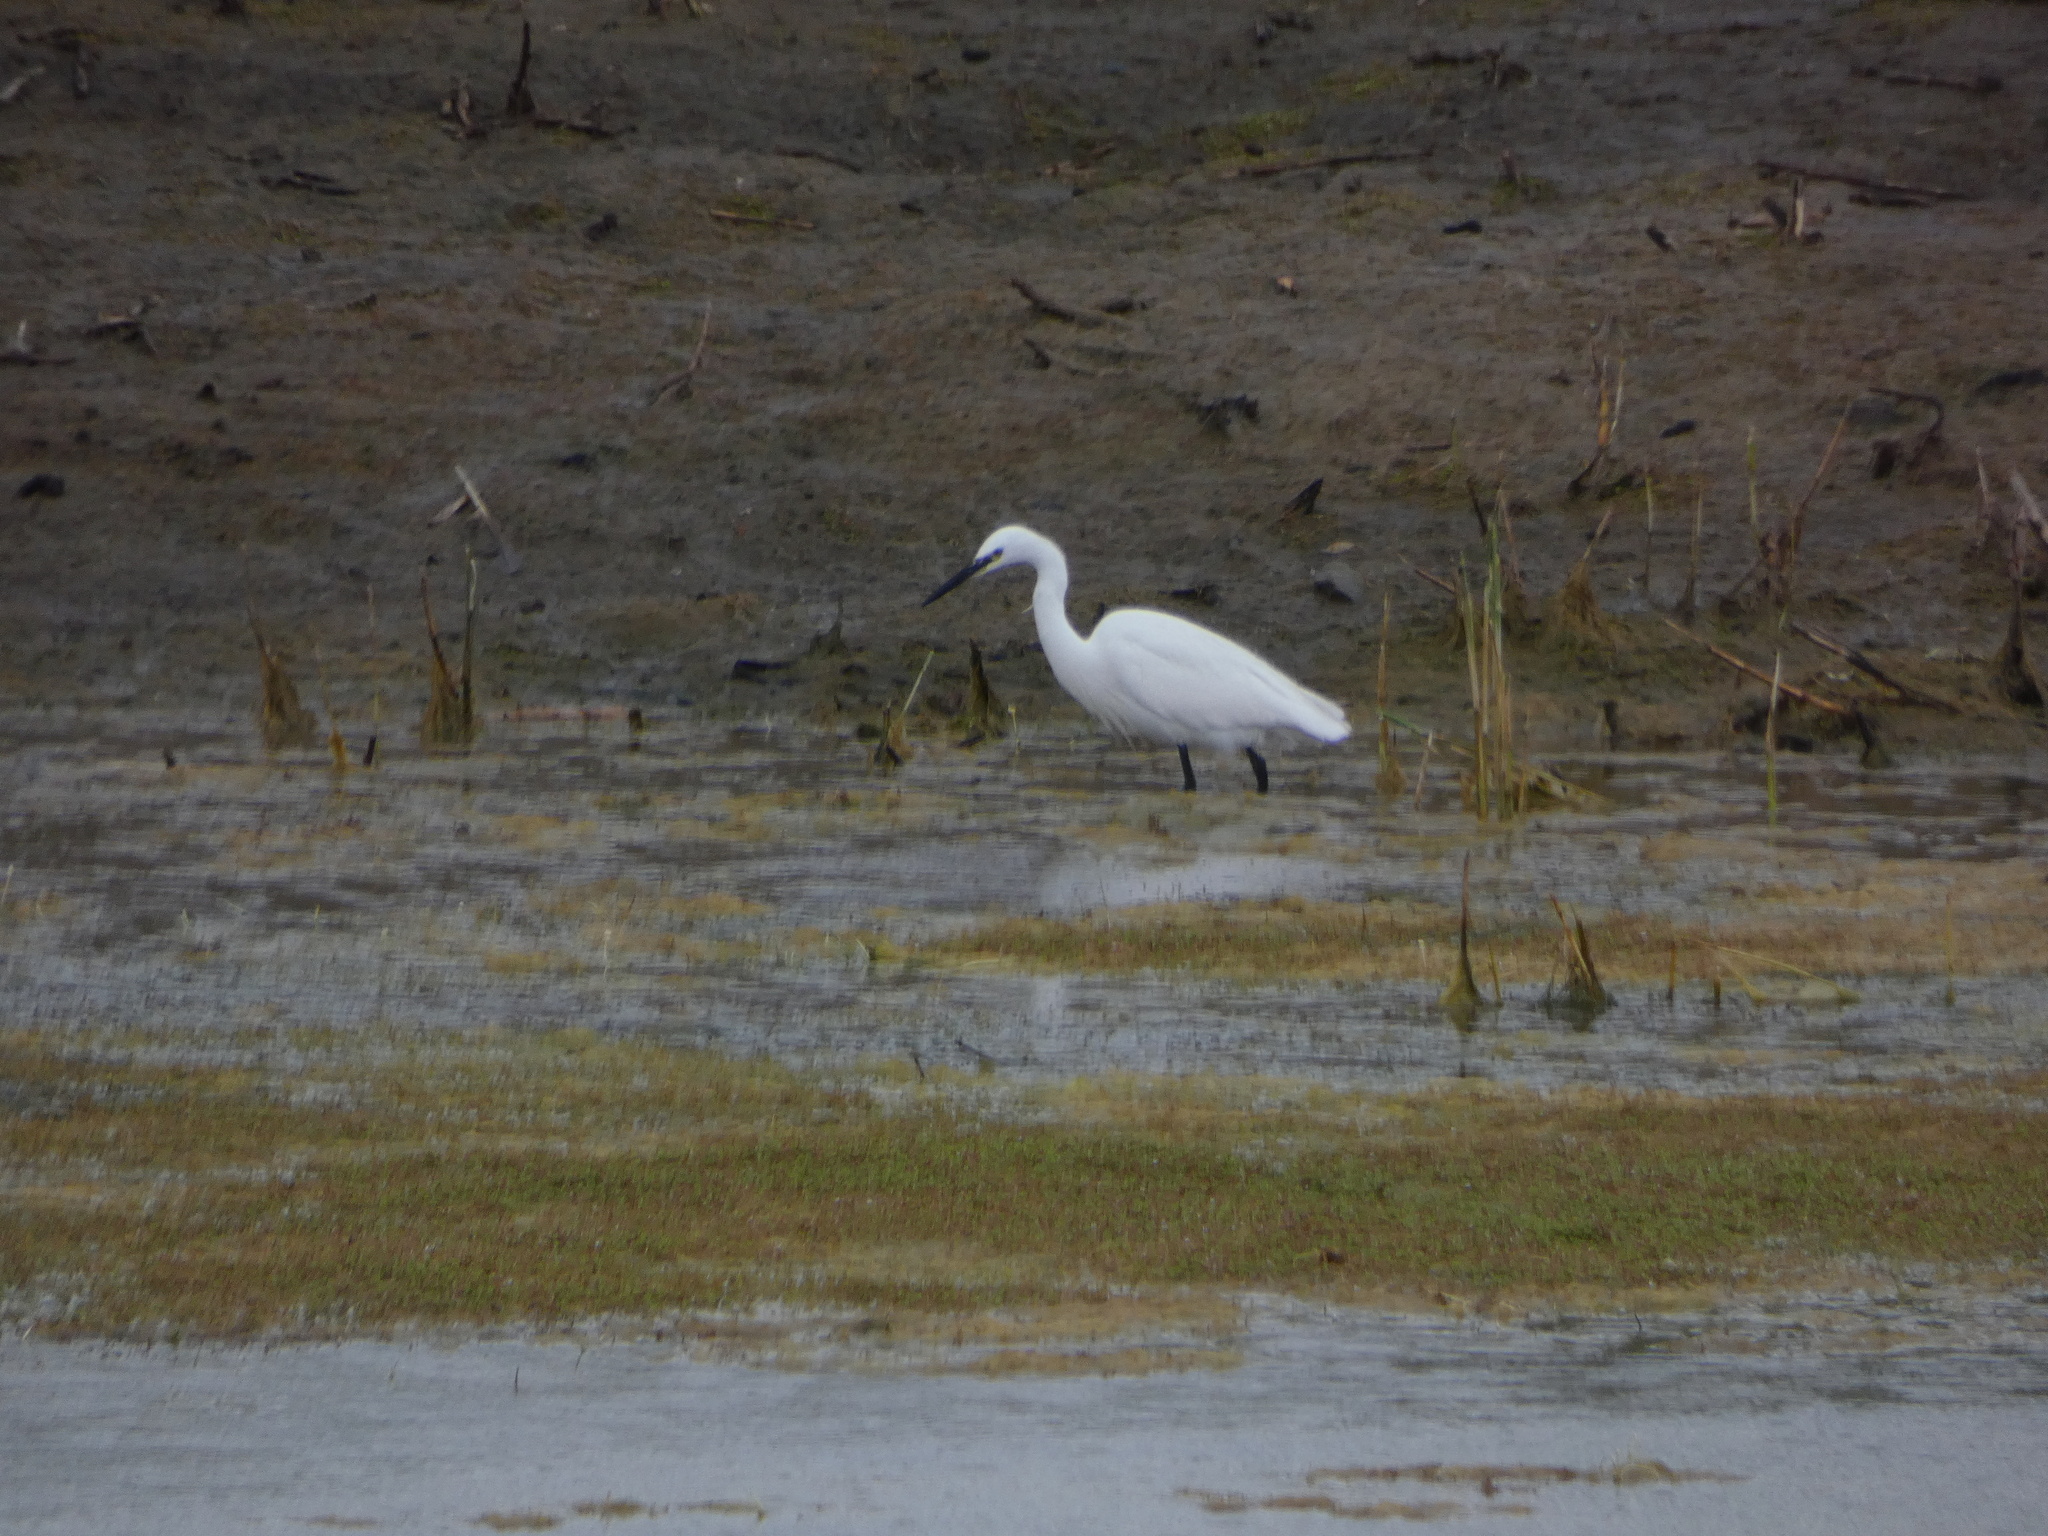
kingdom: Animalia
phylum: Chordata
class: Aves
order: Pelecaniformes
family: Ardeidae
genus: Egretta
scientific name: Egretta garzetta
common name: Little egret
